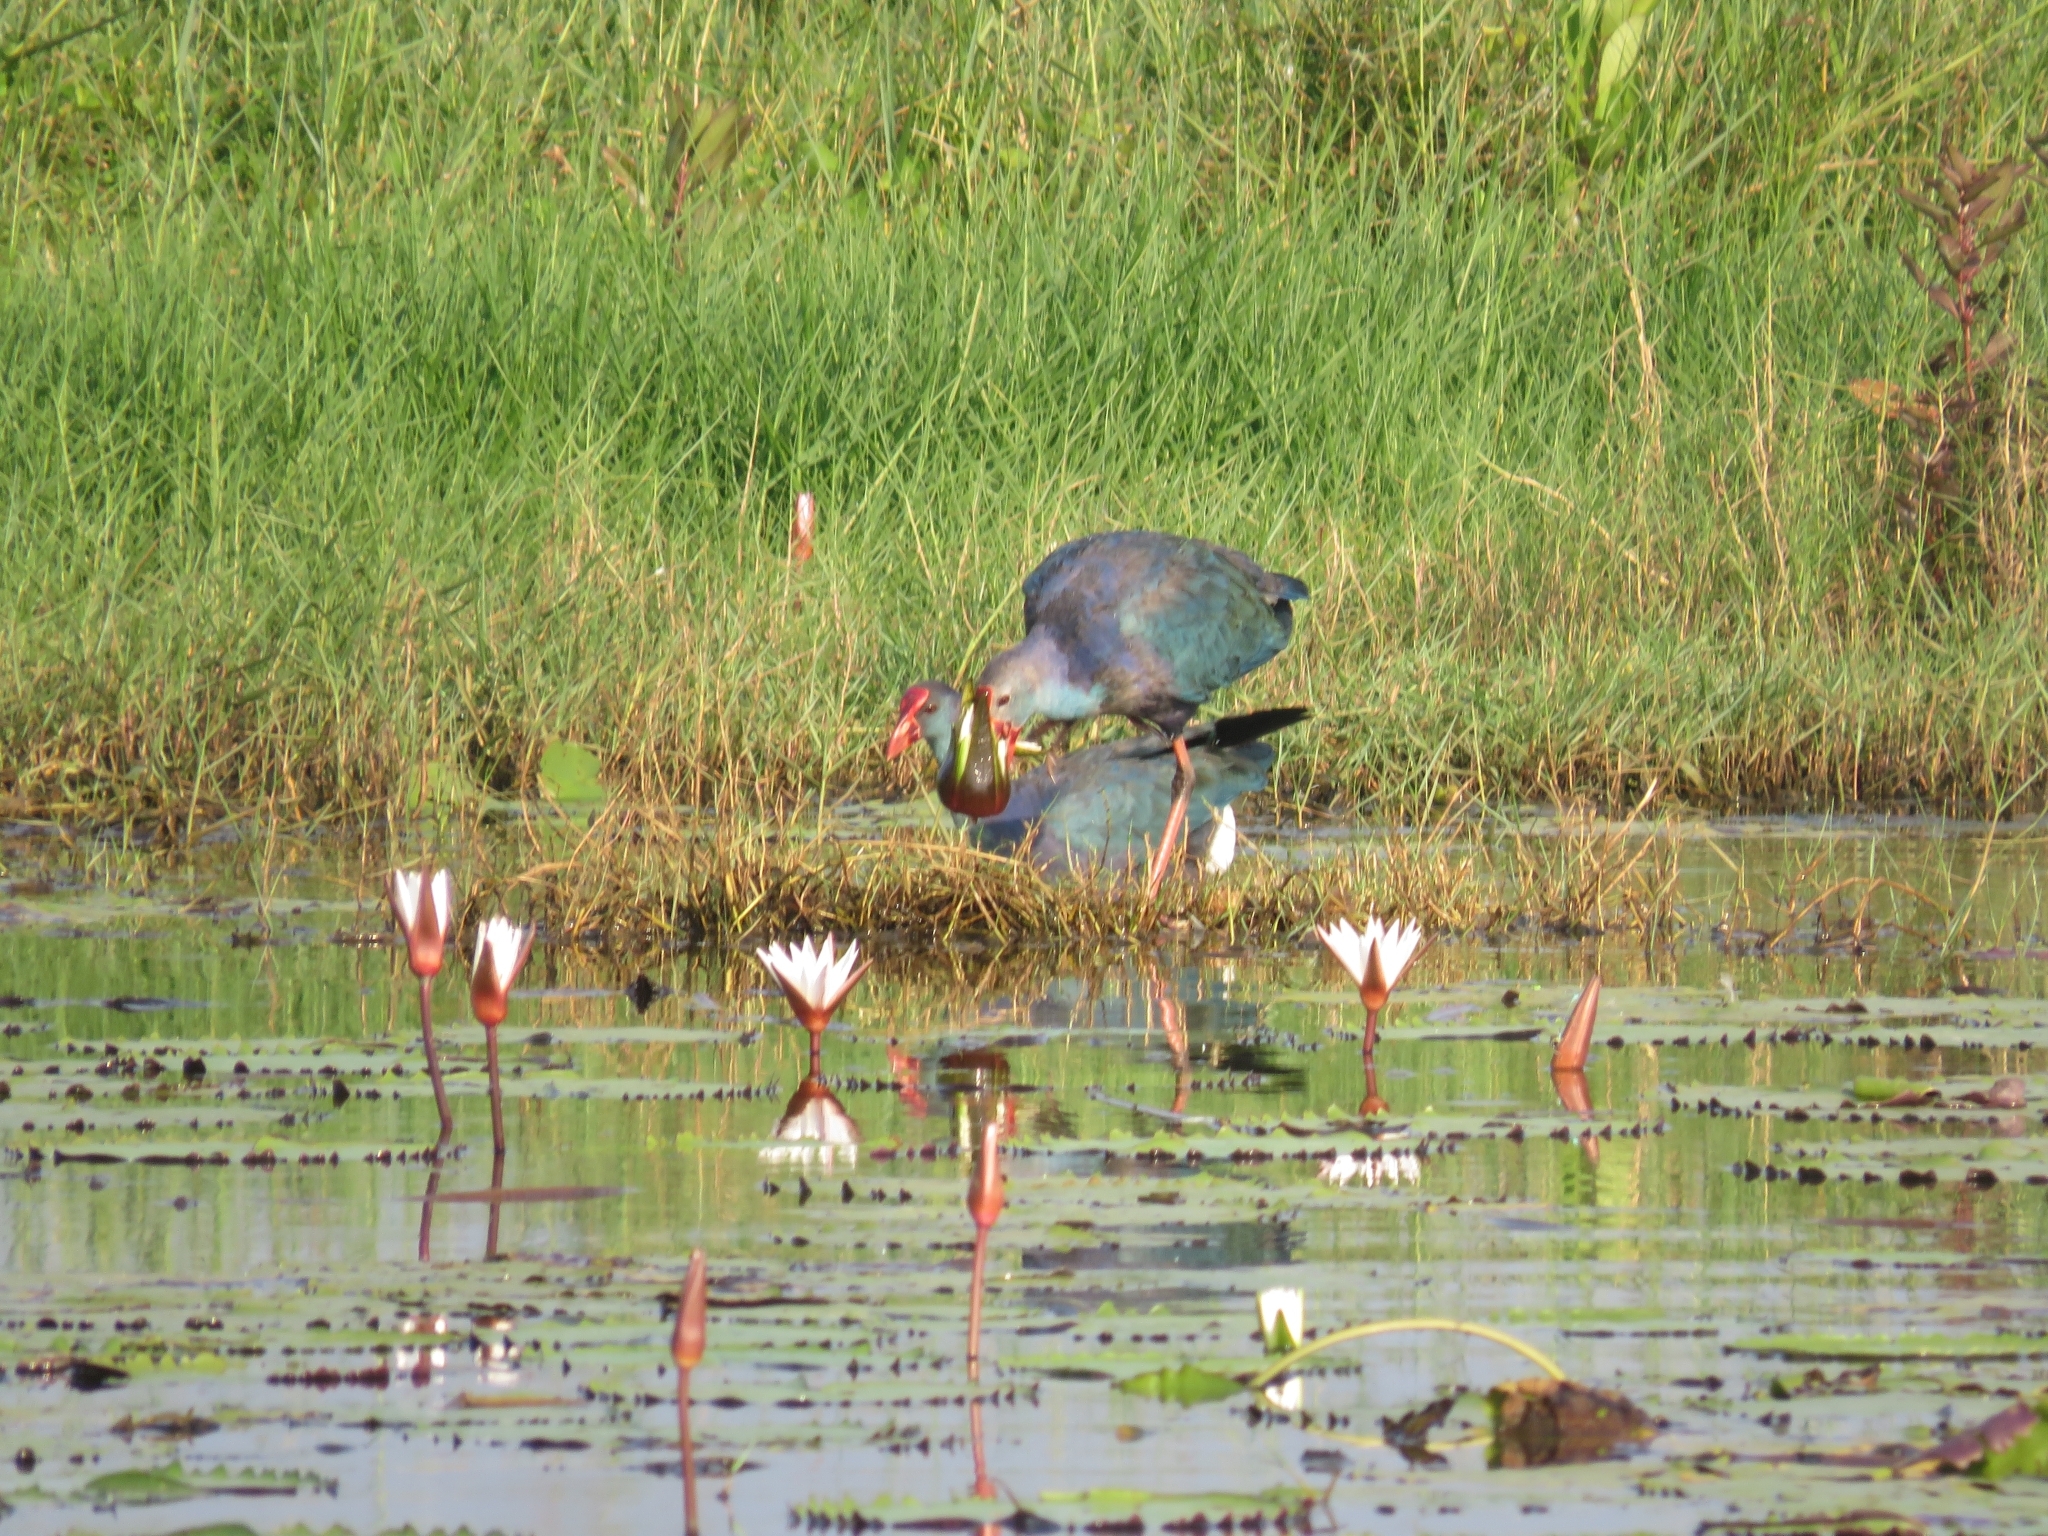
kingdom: Animalia
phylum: Chordata
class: Aves
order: Gruiformes
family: Rallidae
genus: Porphyrio
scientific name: Porphyrio porphyrio
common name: Purple swamphen
